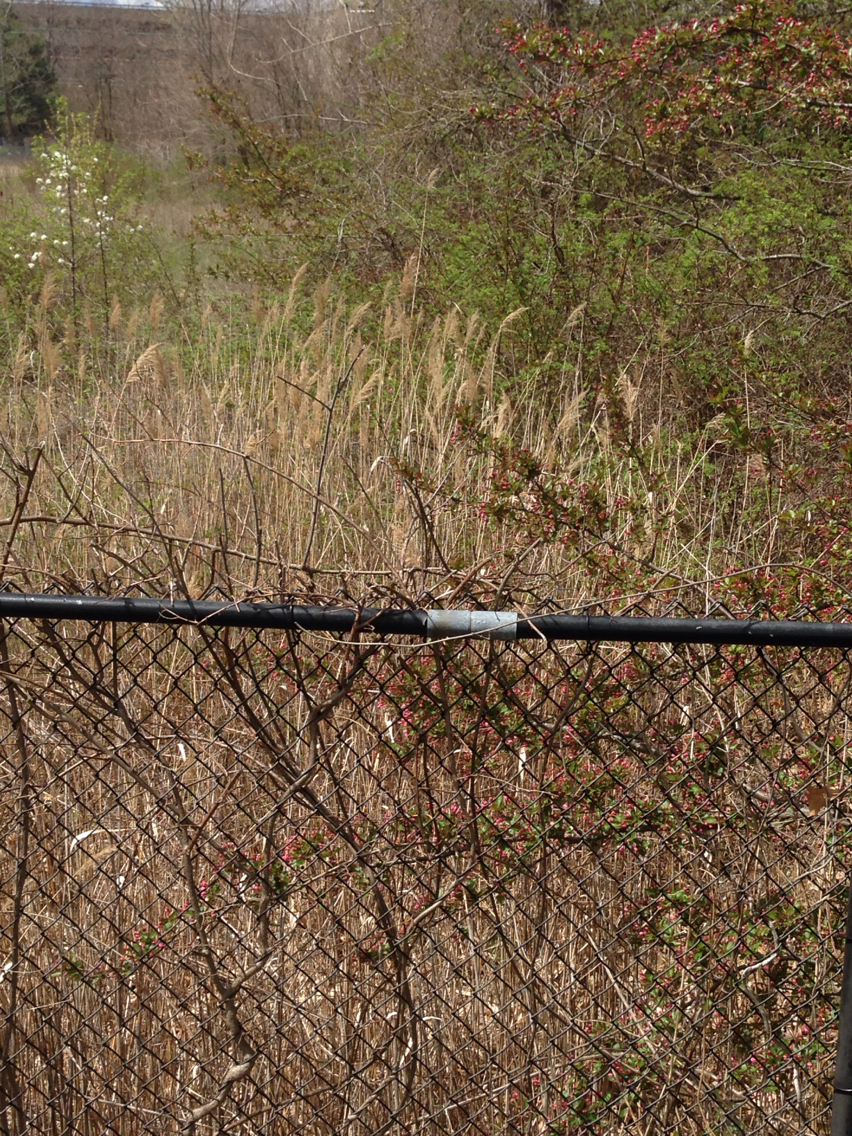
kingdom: Plantae
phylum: Tracheophyta
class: Liliopsida
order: Poales
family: Poaceae
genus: Phragmites
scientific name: Phragmites australis
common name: Common reed
